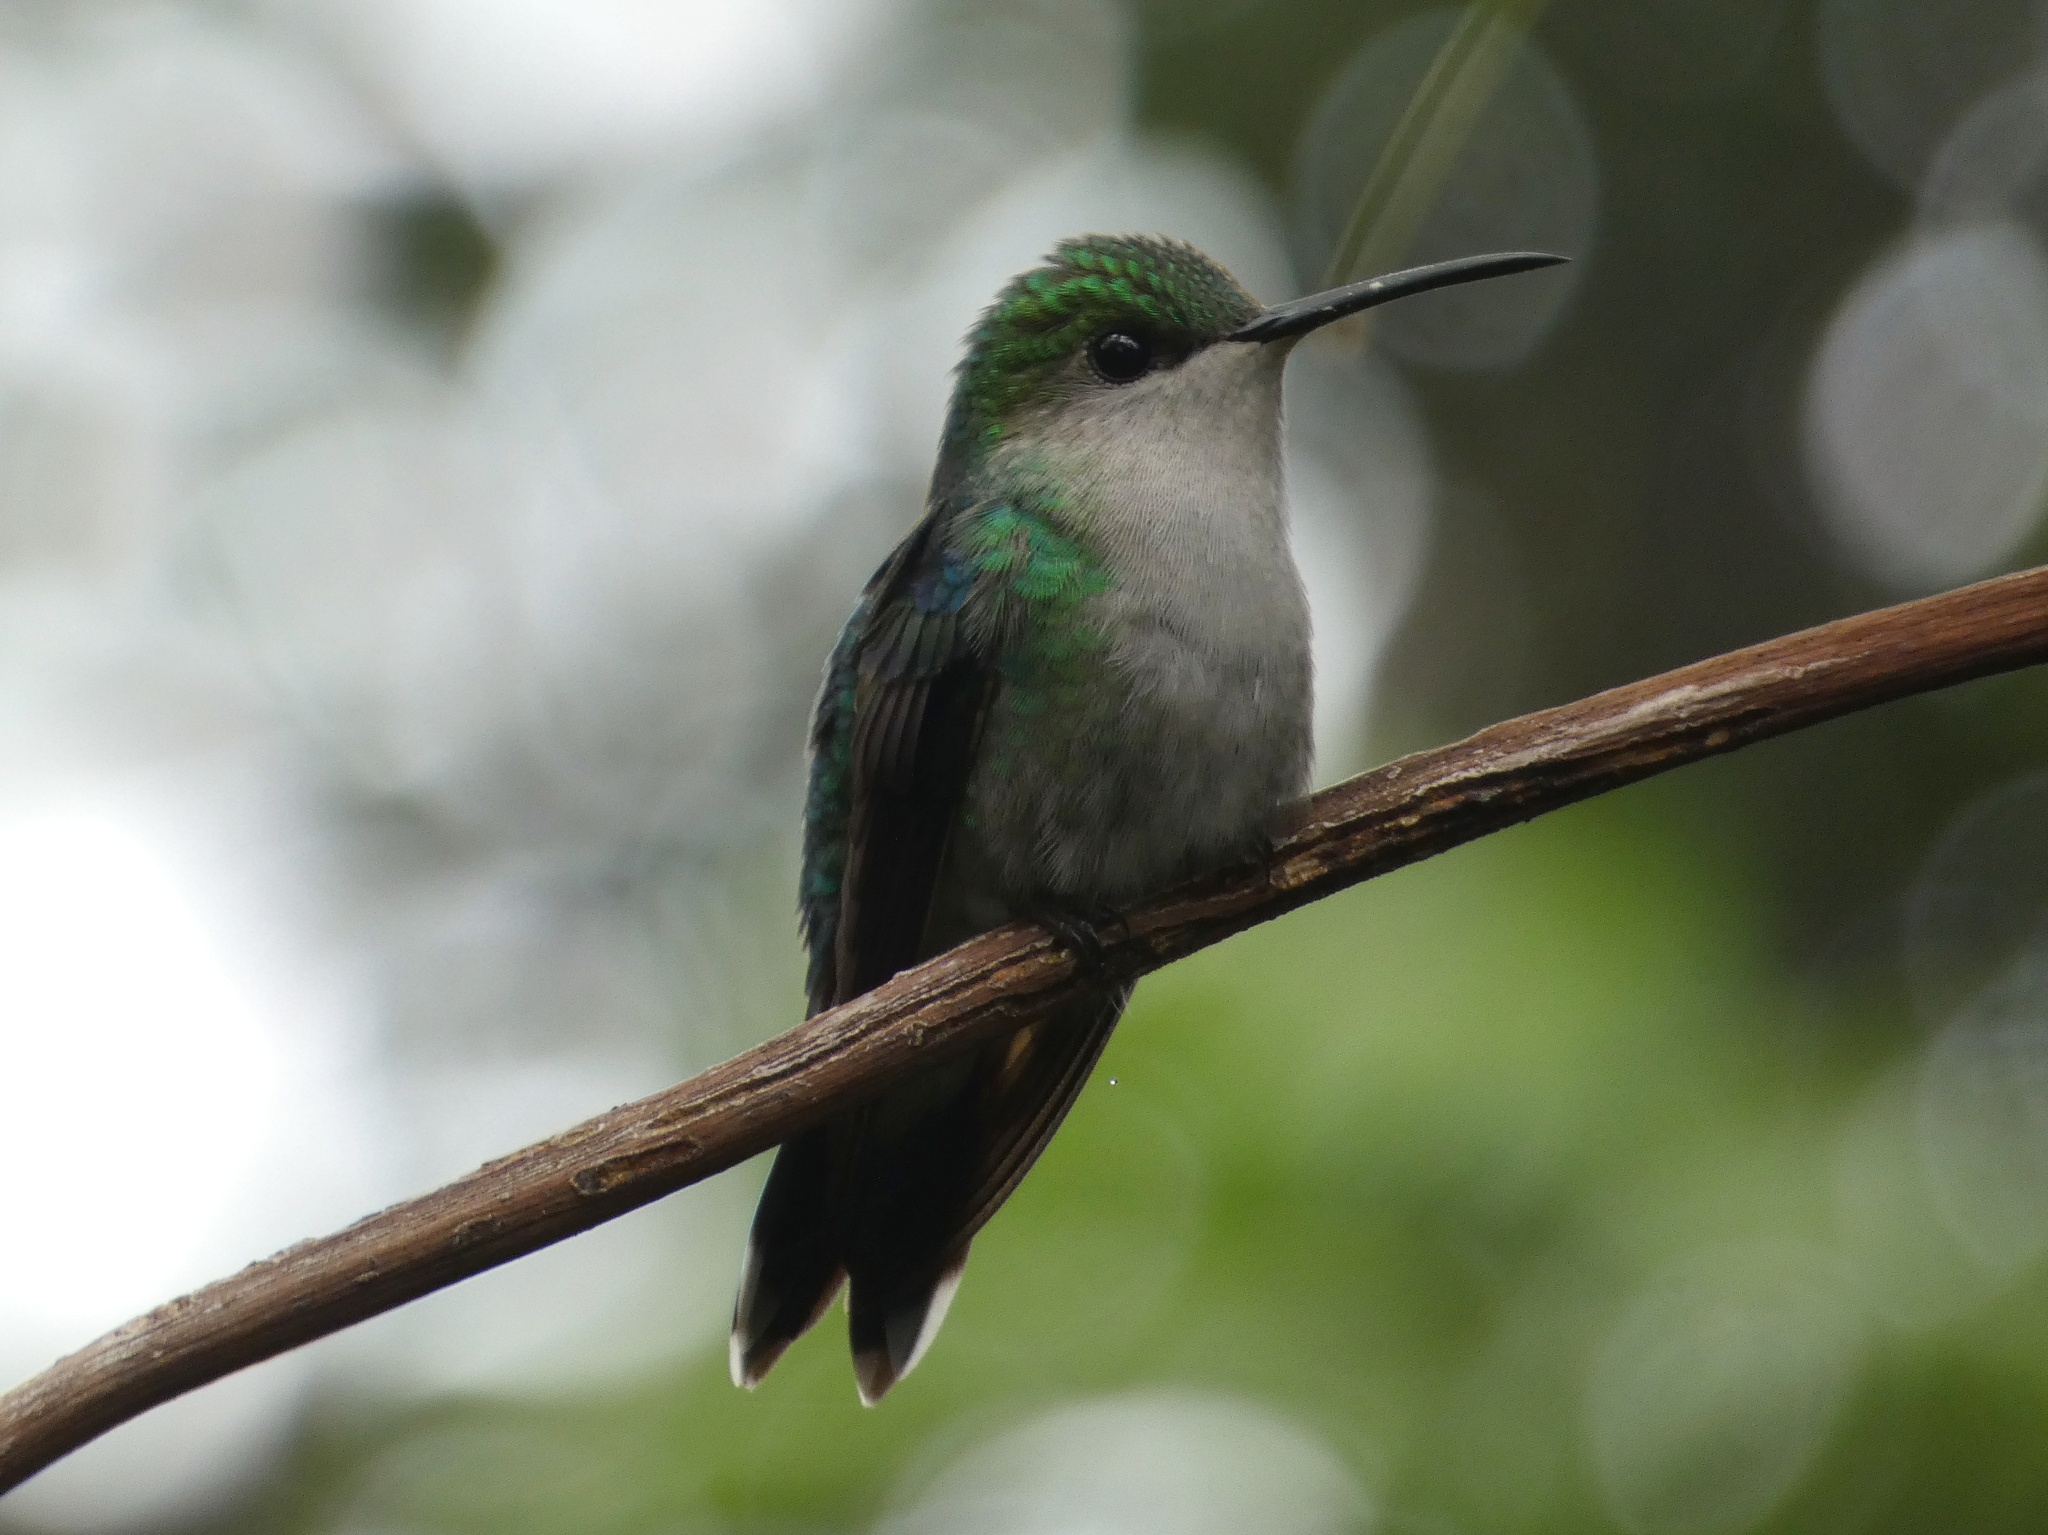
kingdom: Animalia
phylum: Chordata
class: Aves
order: Apodiformes
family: Trochilidae
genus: Thalurania
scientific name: Thalurania colombica
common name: Crowned woodnymph
